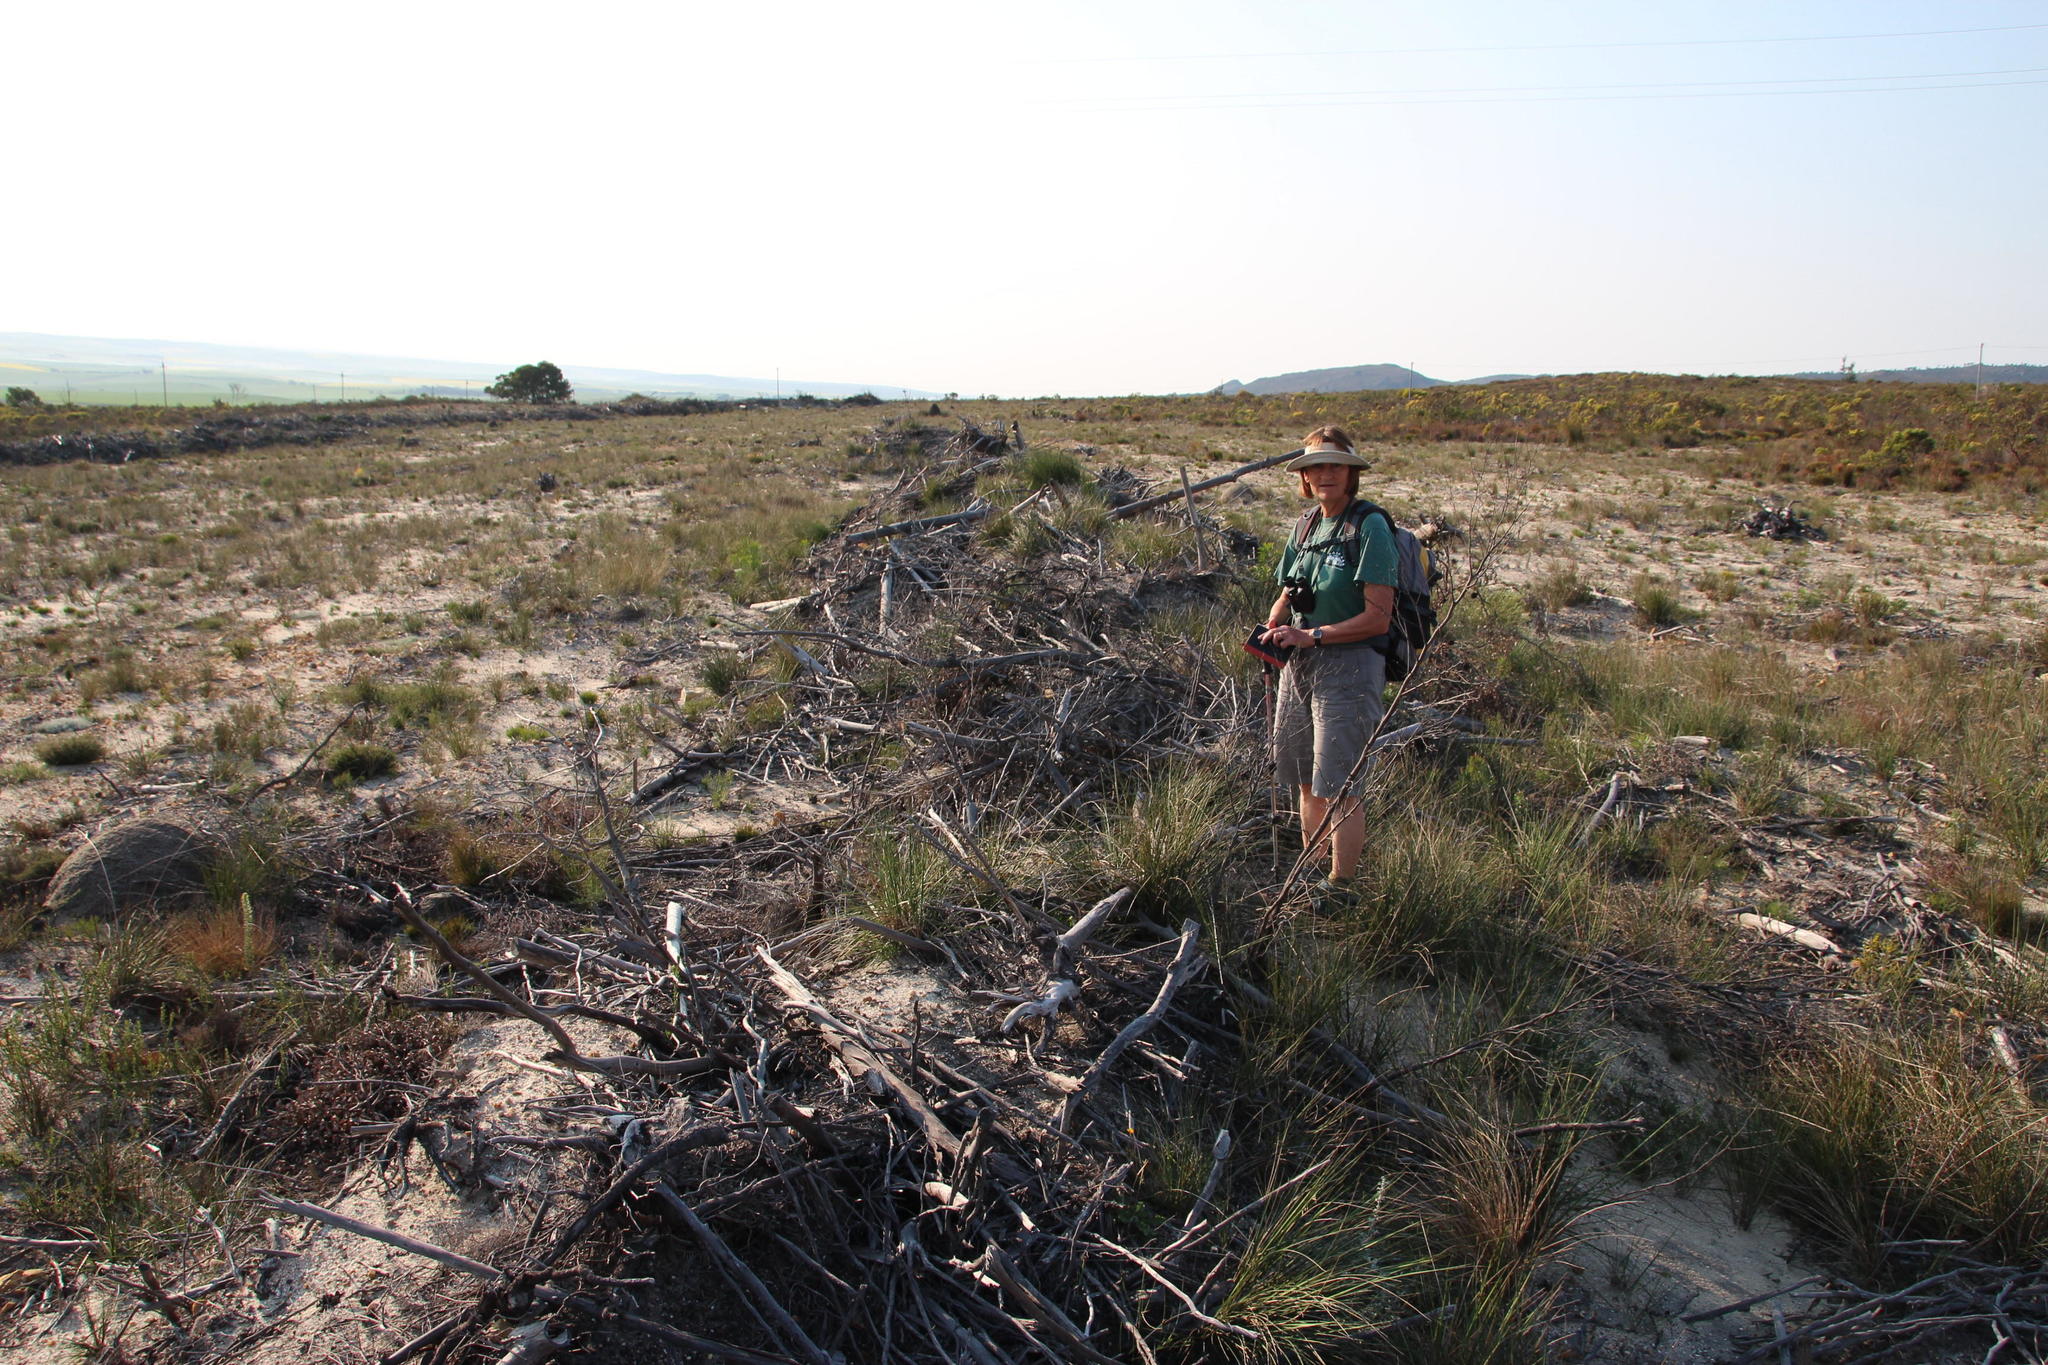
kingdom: Plantae
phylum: Tracheophyta
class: Magnoliopsida
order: Myrtales
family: Myrtaceae
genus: Eucalyptus
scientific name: Eucalyptus conferruminata
